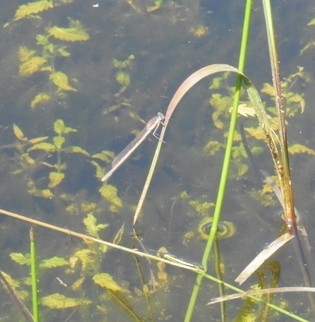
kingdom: Animalia
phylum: Arthropoda
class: Insecta
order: Odonata
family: Lestidae
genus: Sympecma
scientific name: Sympecma fusca
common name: Common winter damsel
